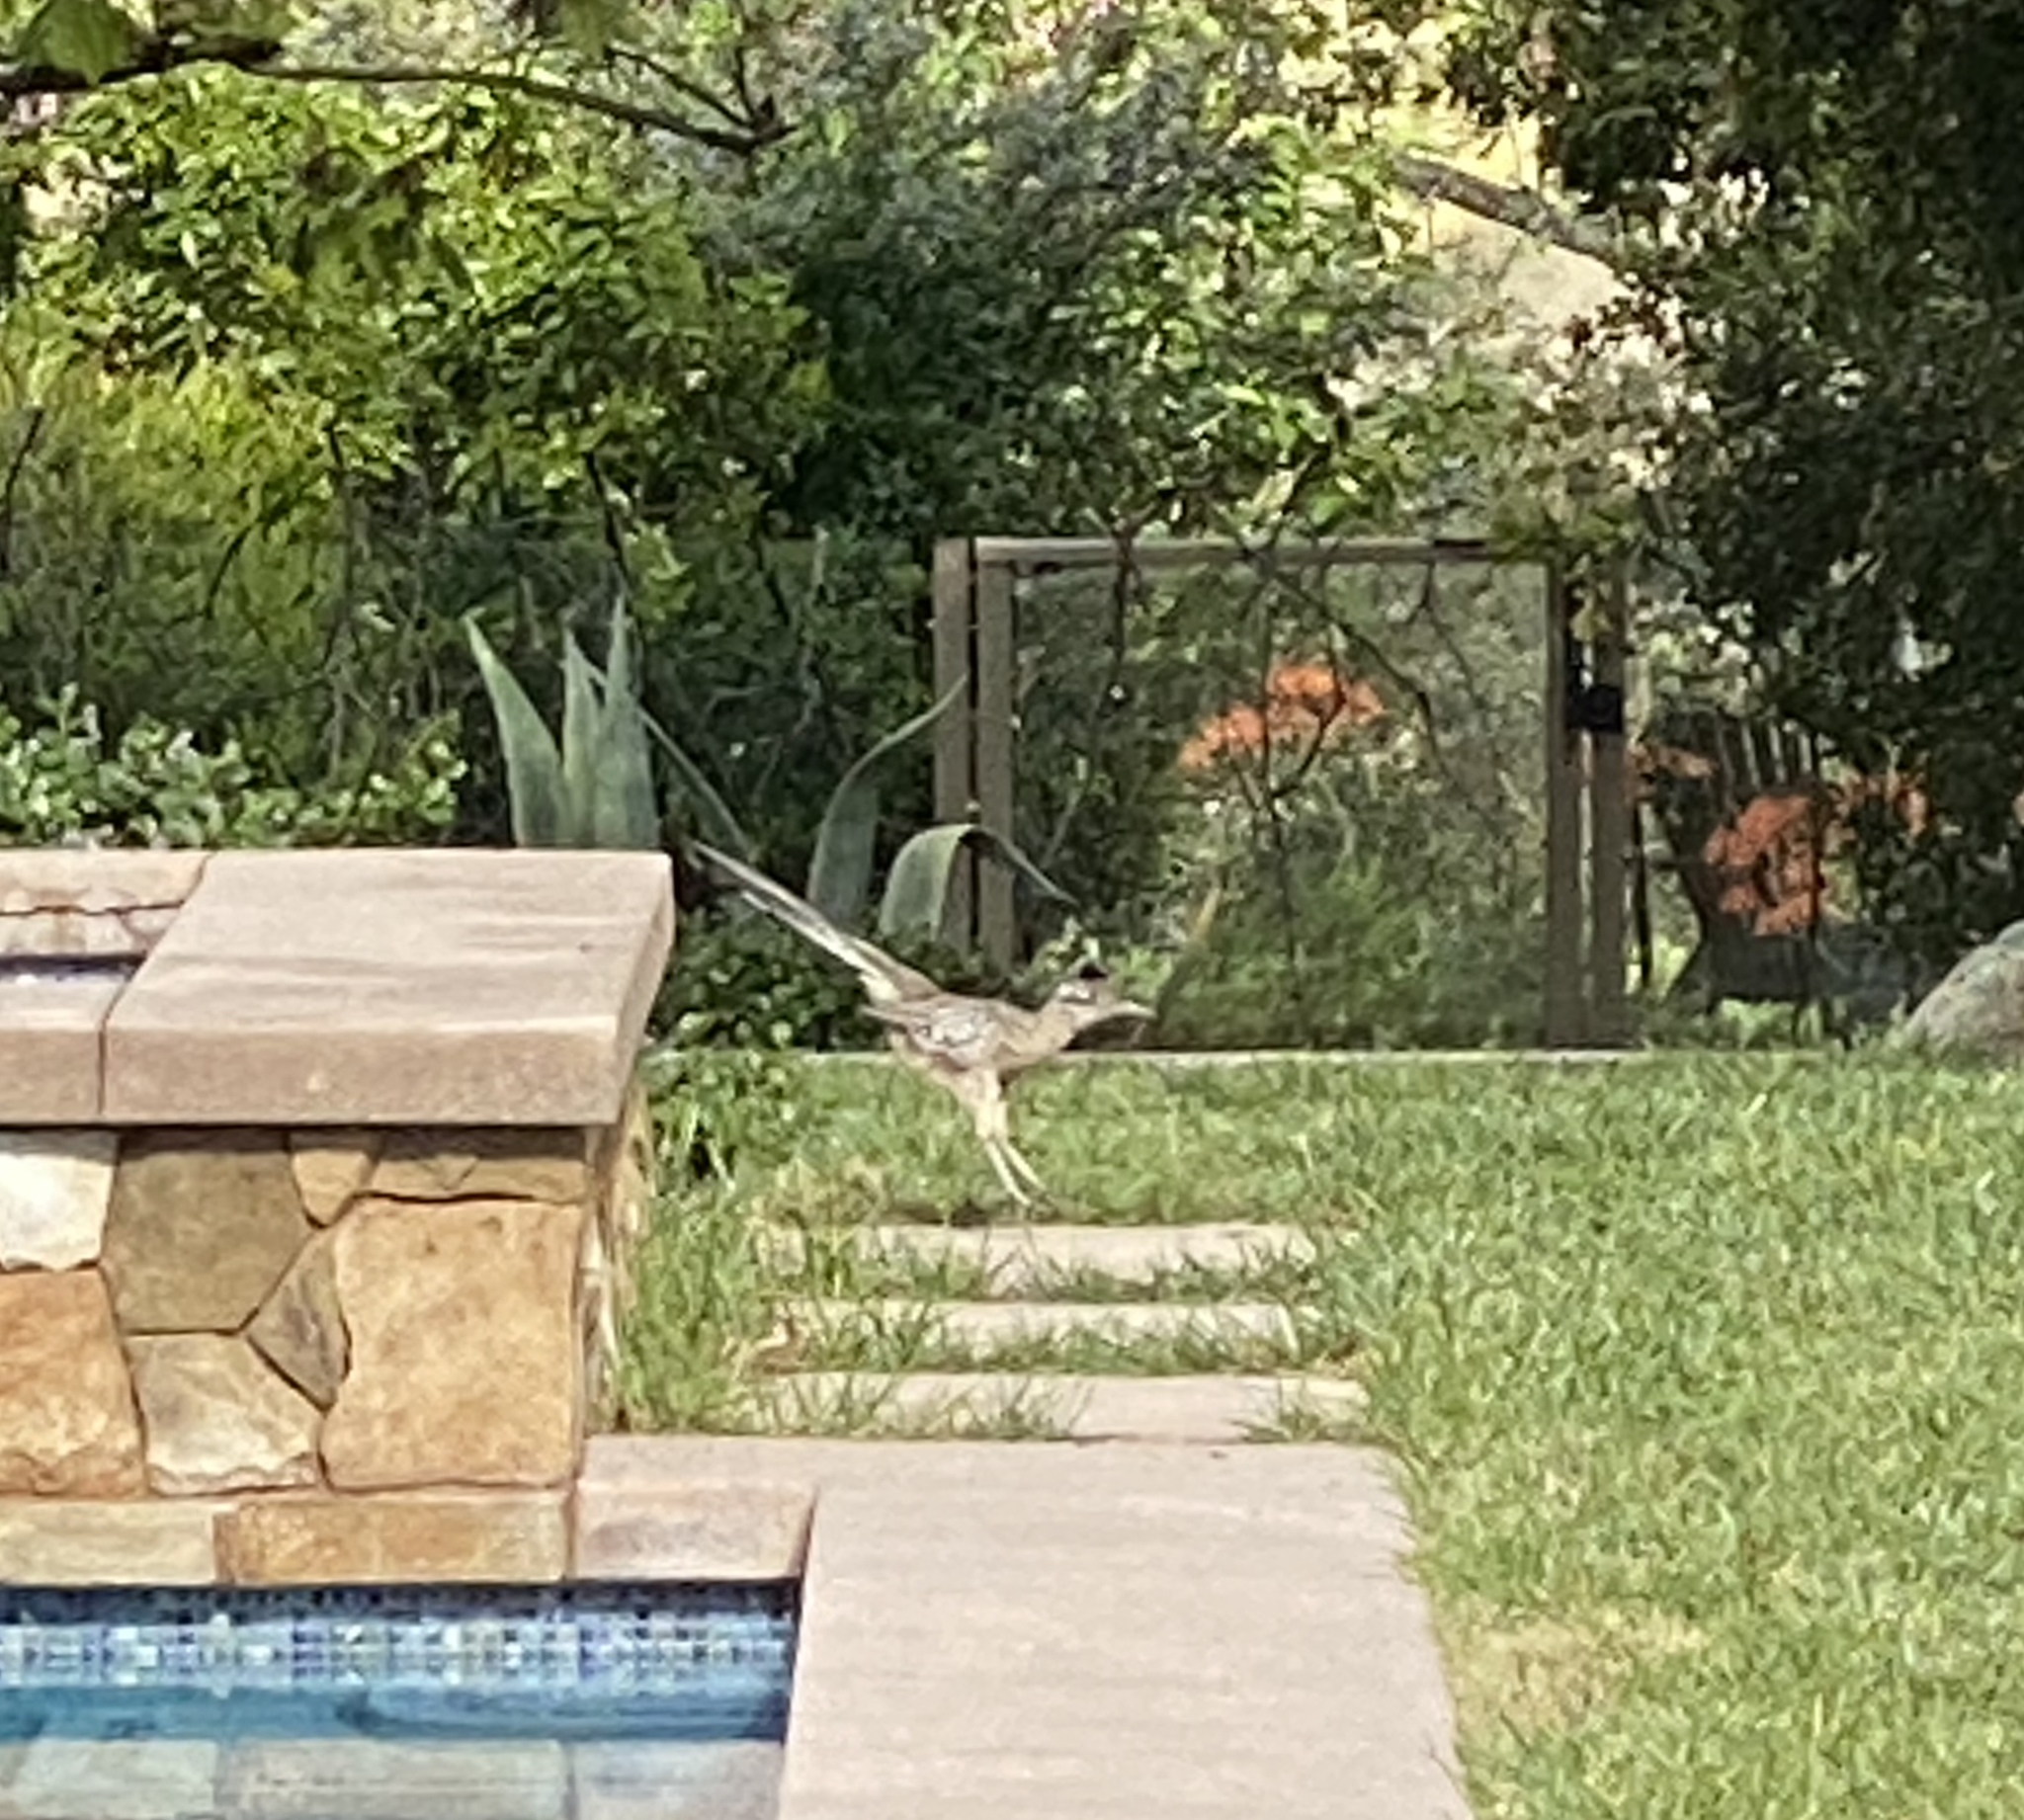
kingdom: Animalia
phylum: Chordata
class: Aves
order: Cuculiformes
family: Cuculidae
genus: Geococcyx
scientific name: Geococcyx californianus
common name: Greater roadrunner
